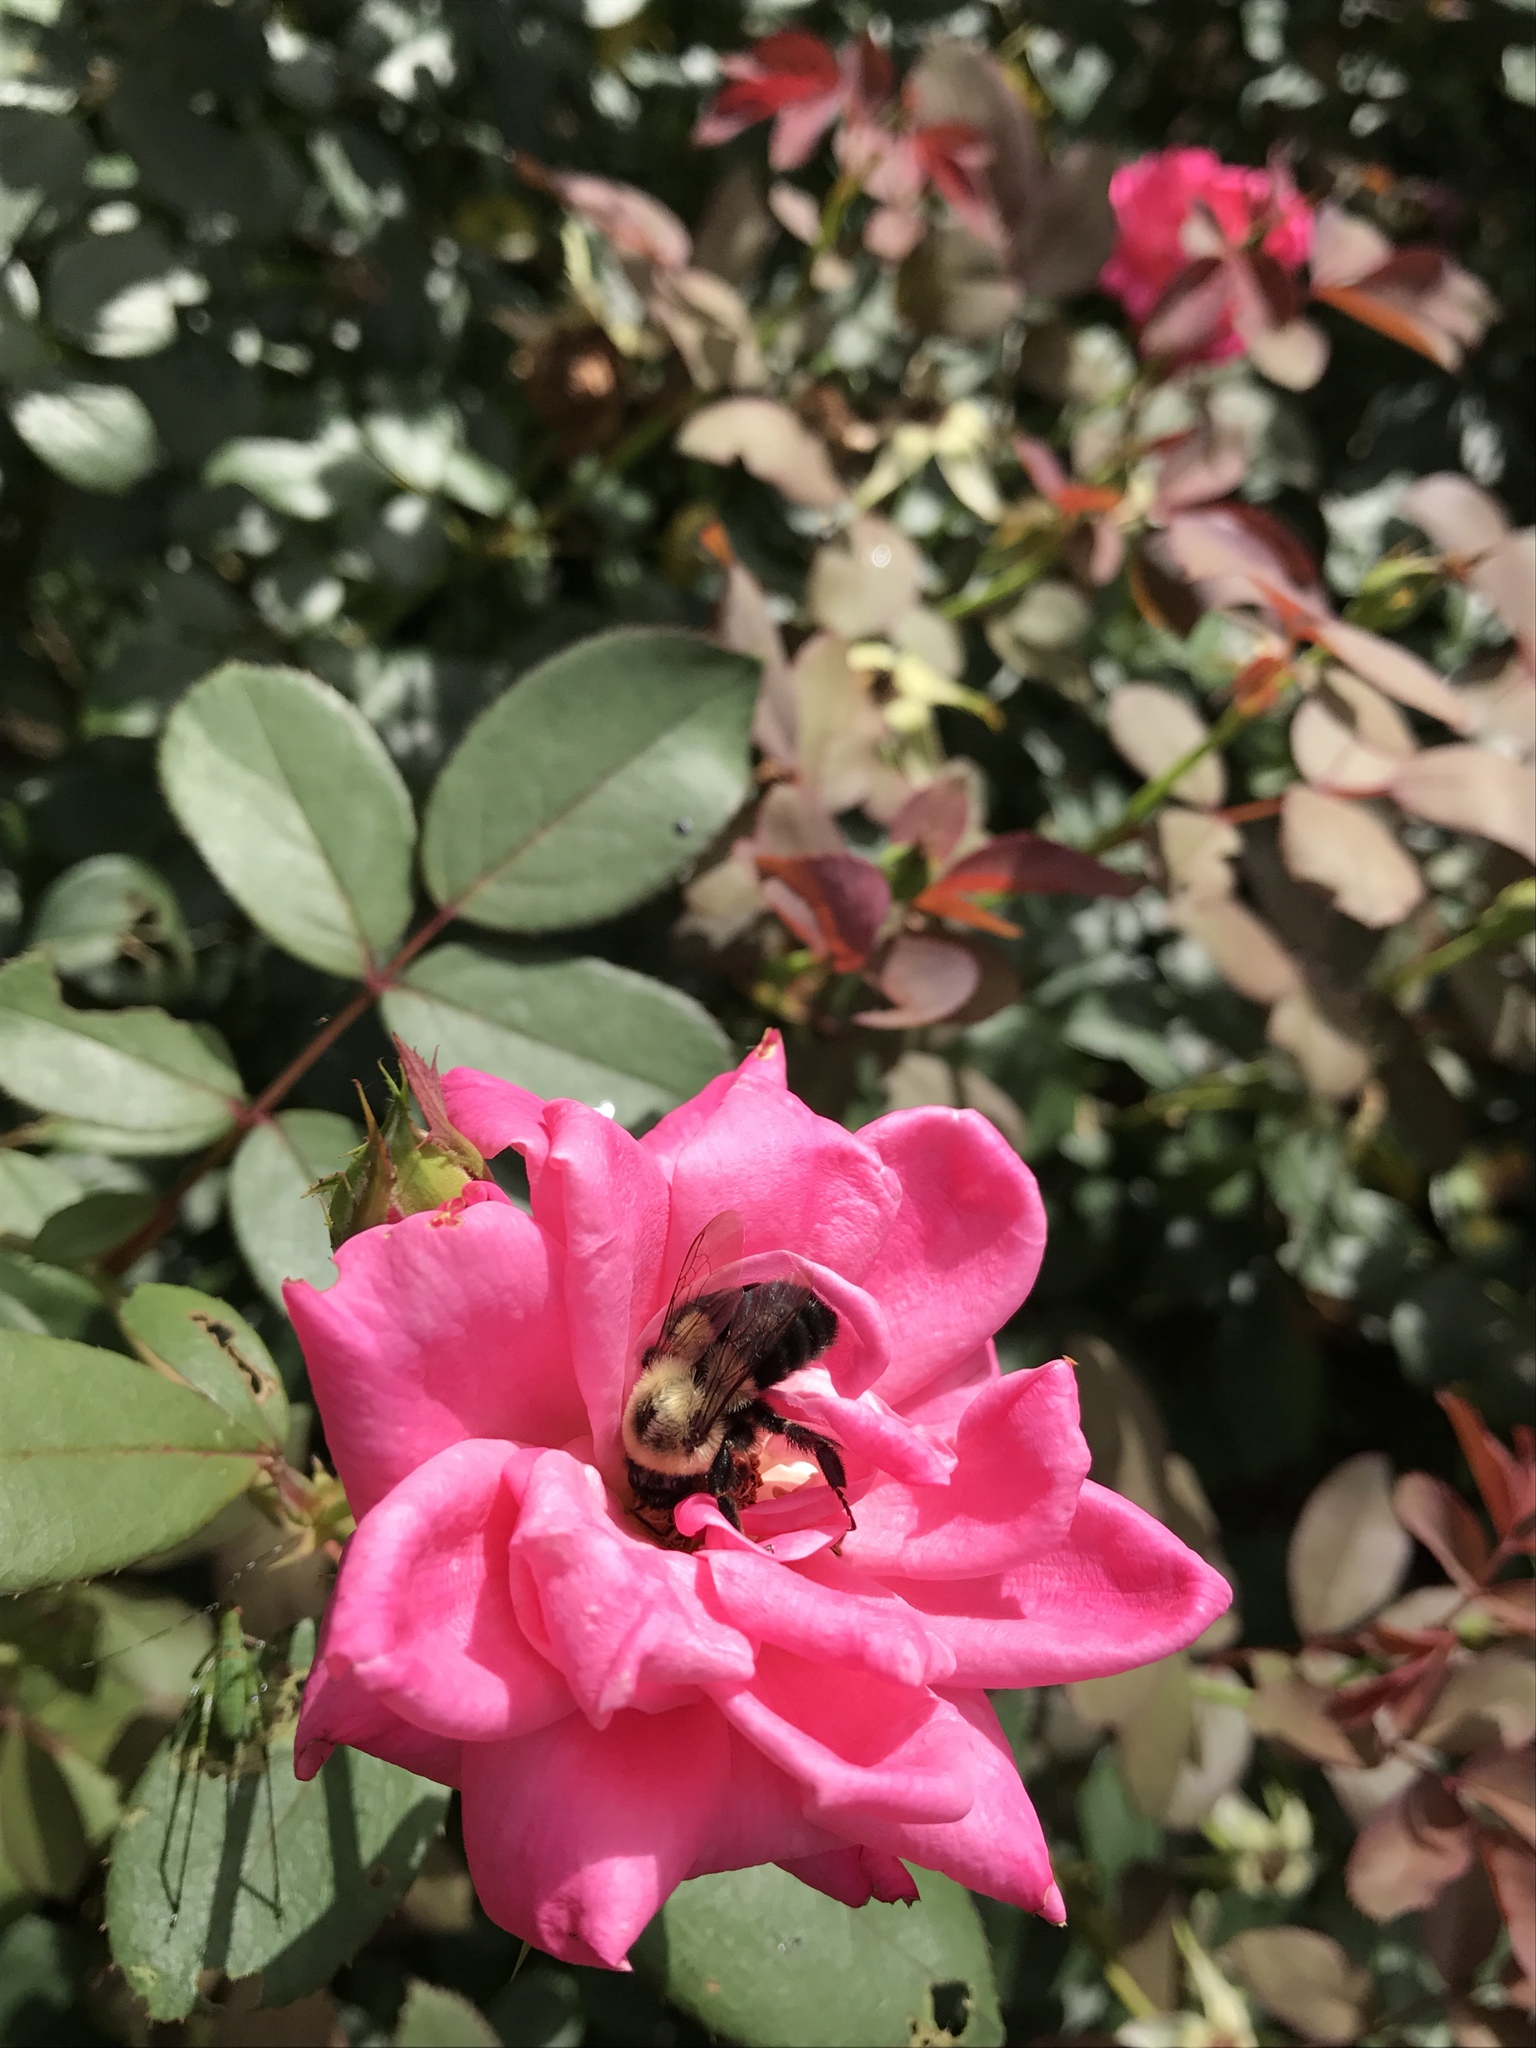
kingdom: Animalia
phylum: Arthropoda
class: Insecta
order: Hymenoptera
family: Apidae
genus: Bombus
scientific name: Bombus impatiens
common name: Common eastern bumble bee
